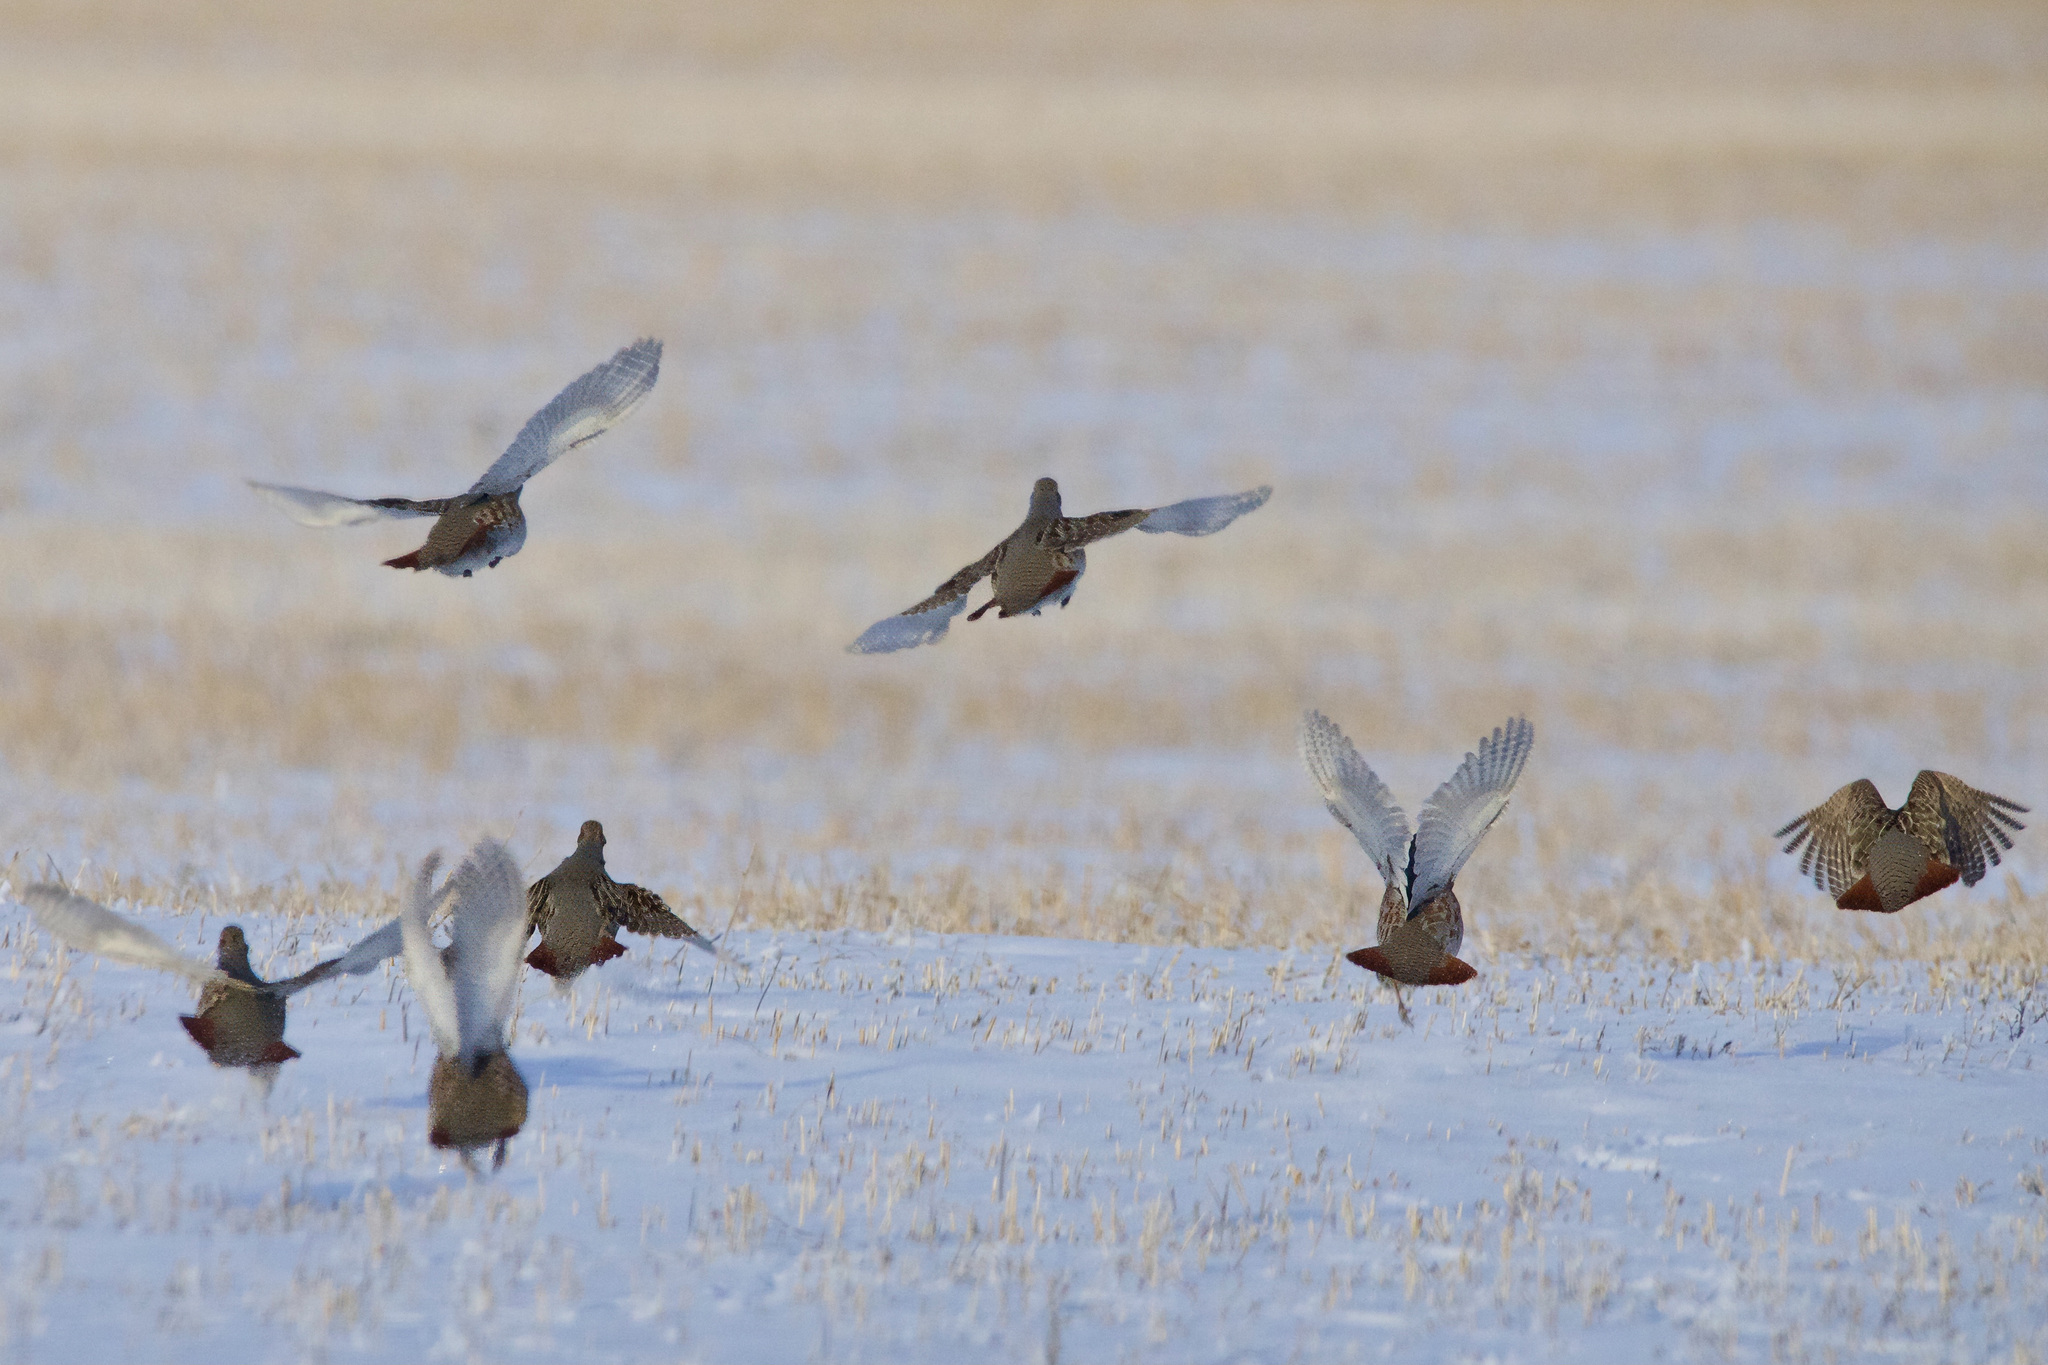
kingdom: Animalia
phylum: Chordata
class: Aves
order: Galliformes
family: Phasianidae
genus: Perdix
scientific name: Perdix perdix
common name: Grey partridge
